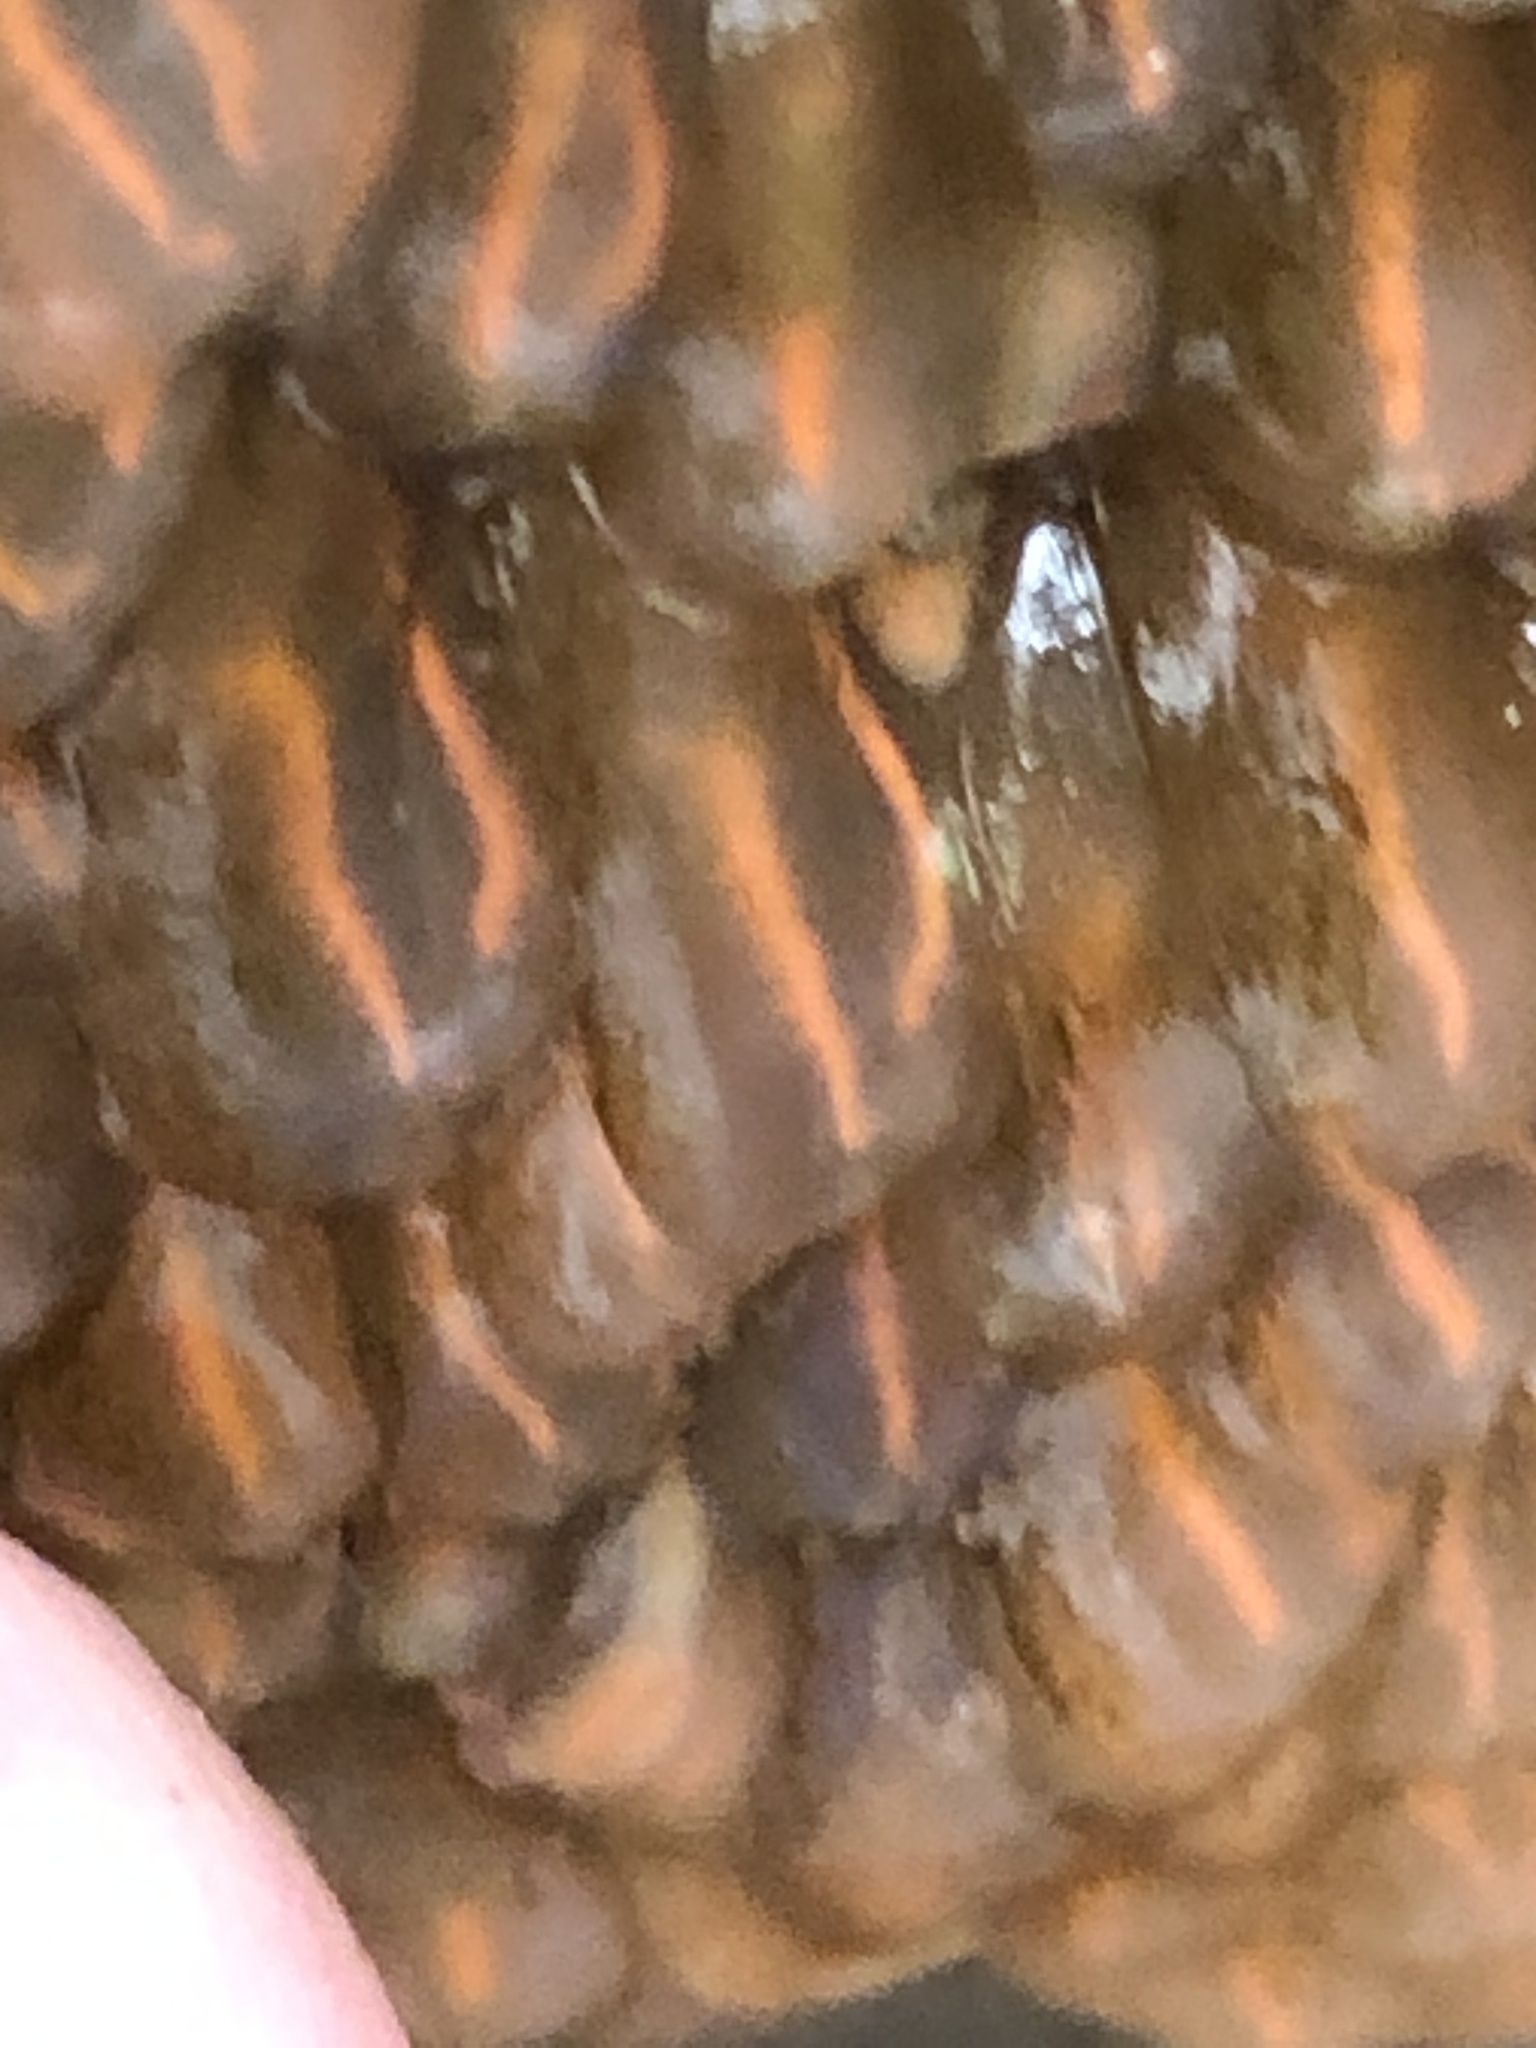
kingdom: Animalia
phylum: Chordata
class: Ascidiacea
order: Aplousobranchia
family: Clavelinidae
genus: Clavelina
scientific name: Clavelina huntsmani
